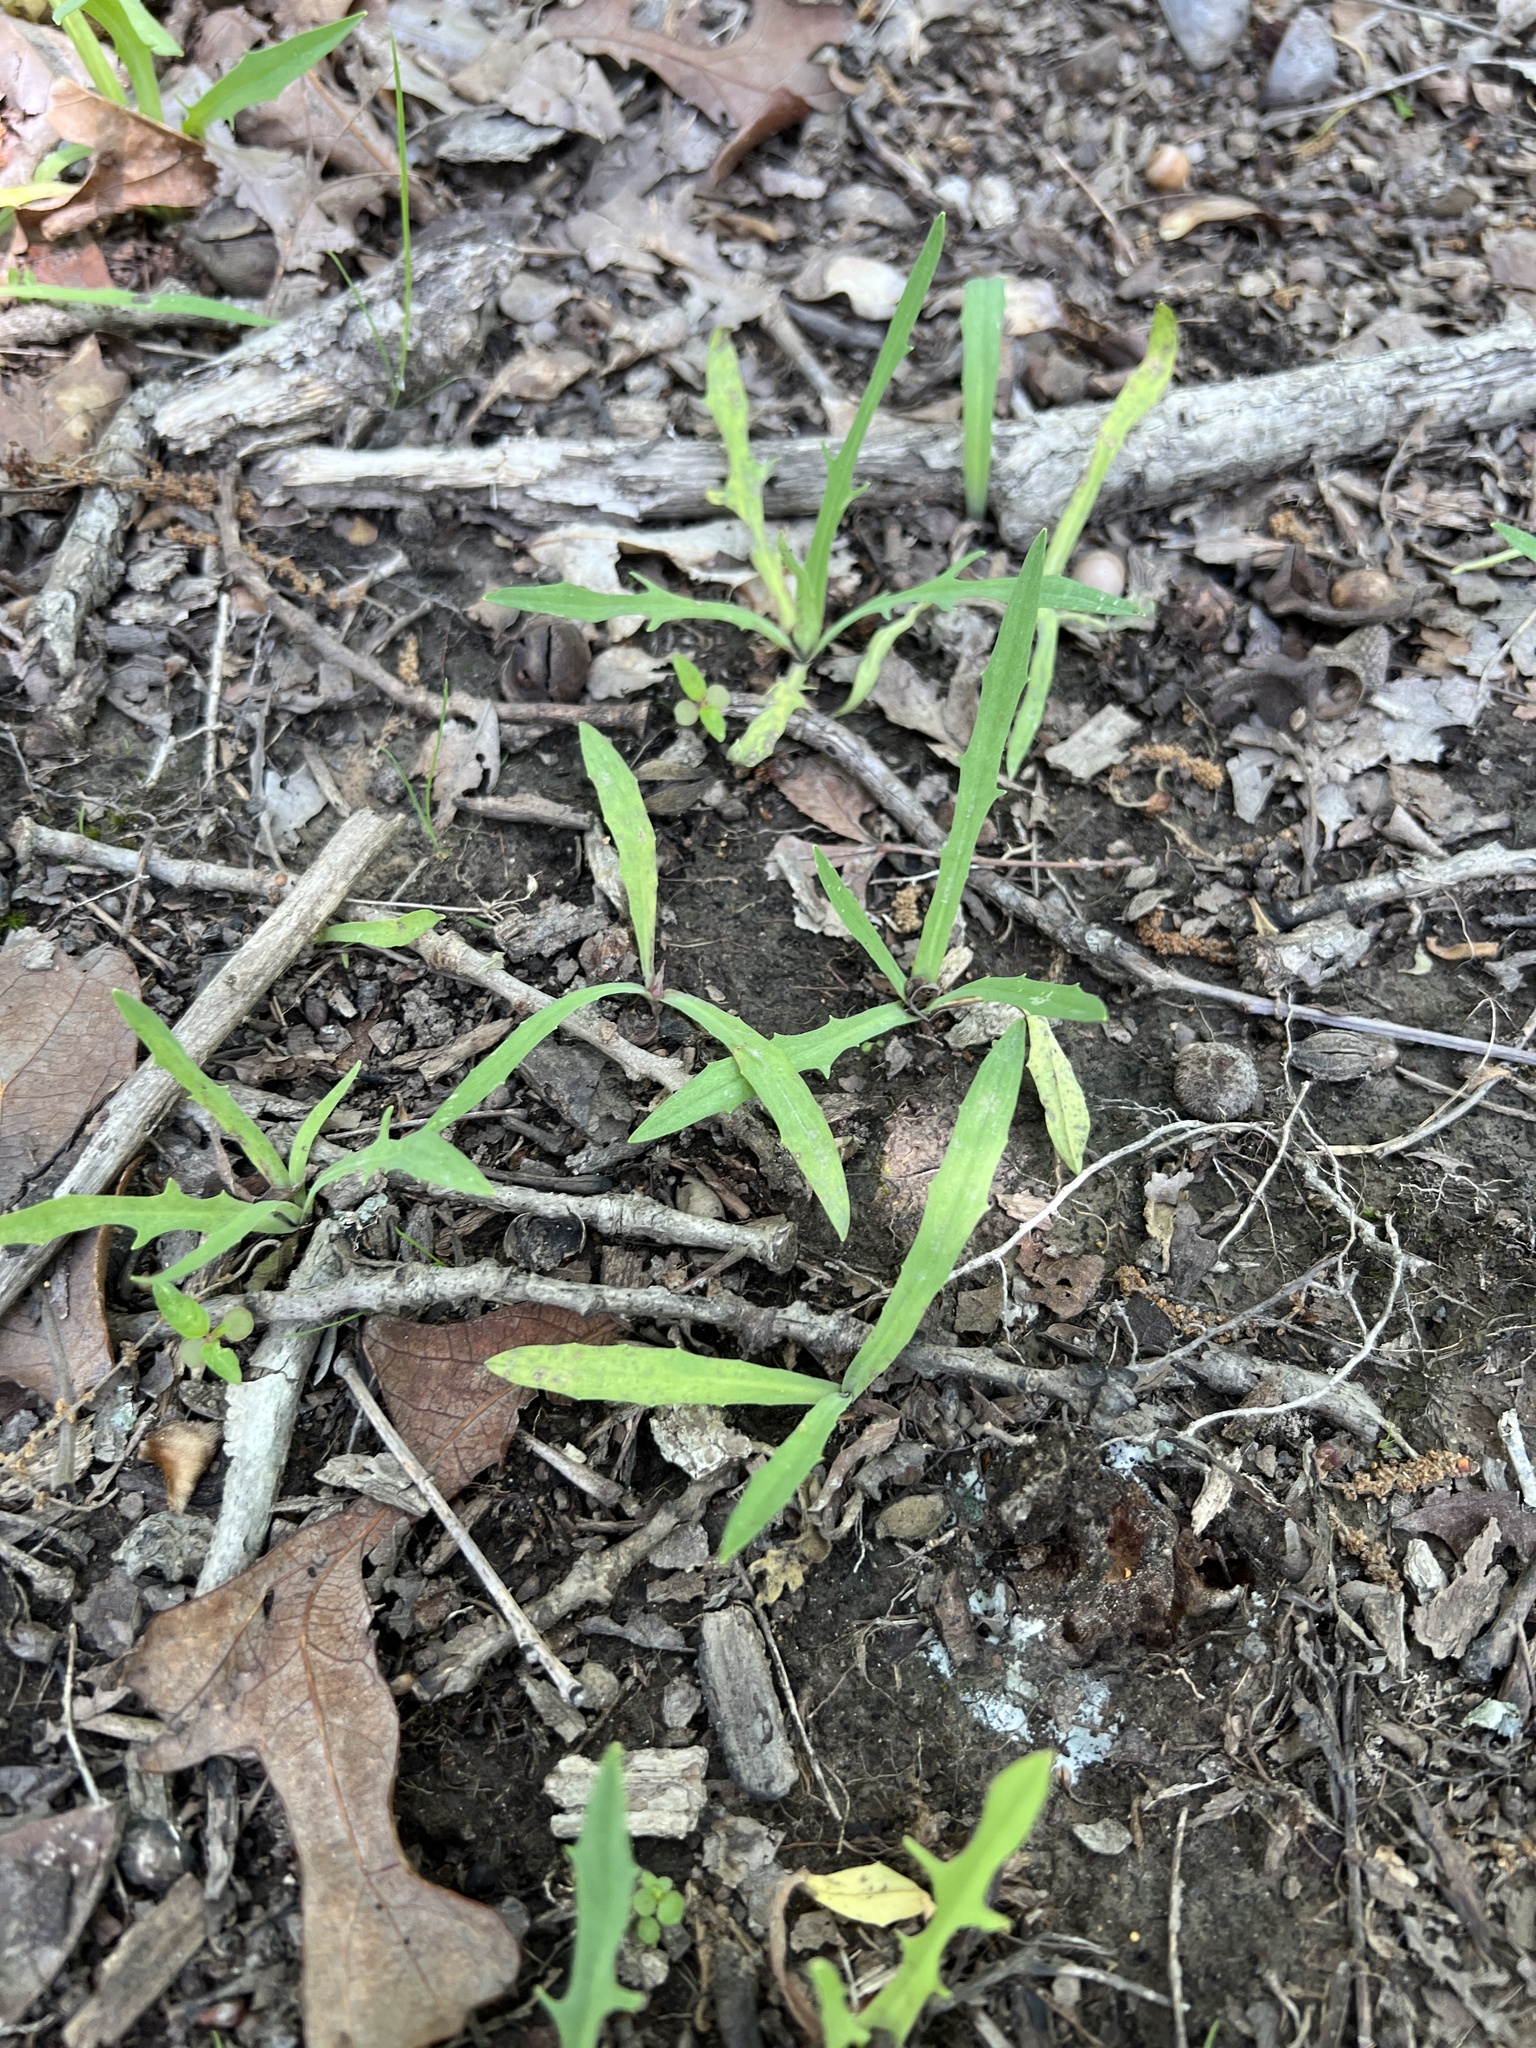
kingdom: Plantae
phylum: Tracheophyta
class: Magnoliopsida
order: Asterales
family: Asteraceae
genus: Krigia
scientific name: Krigia dandelion
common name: Colonial dwarf-dandelion
